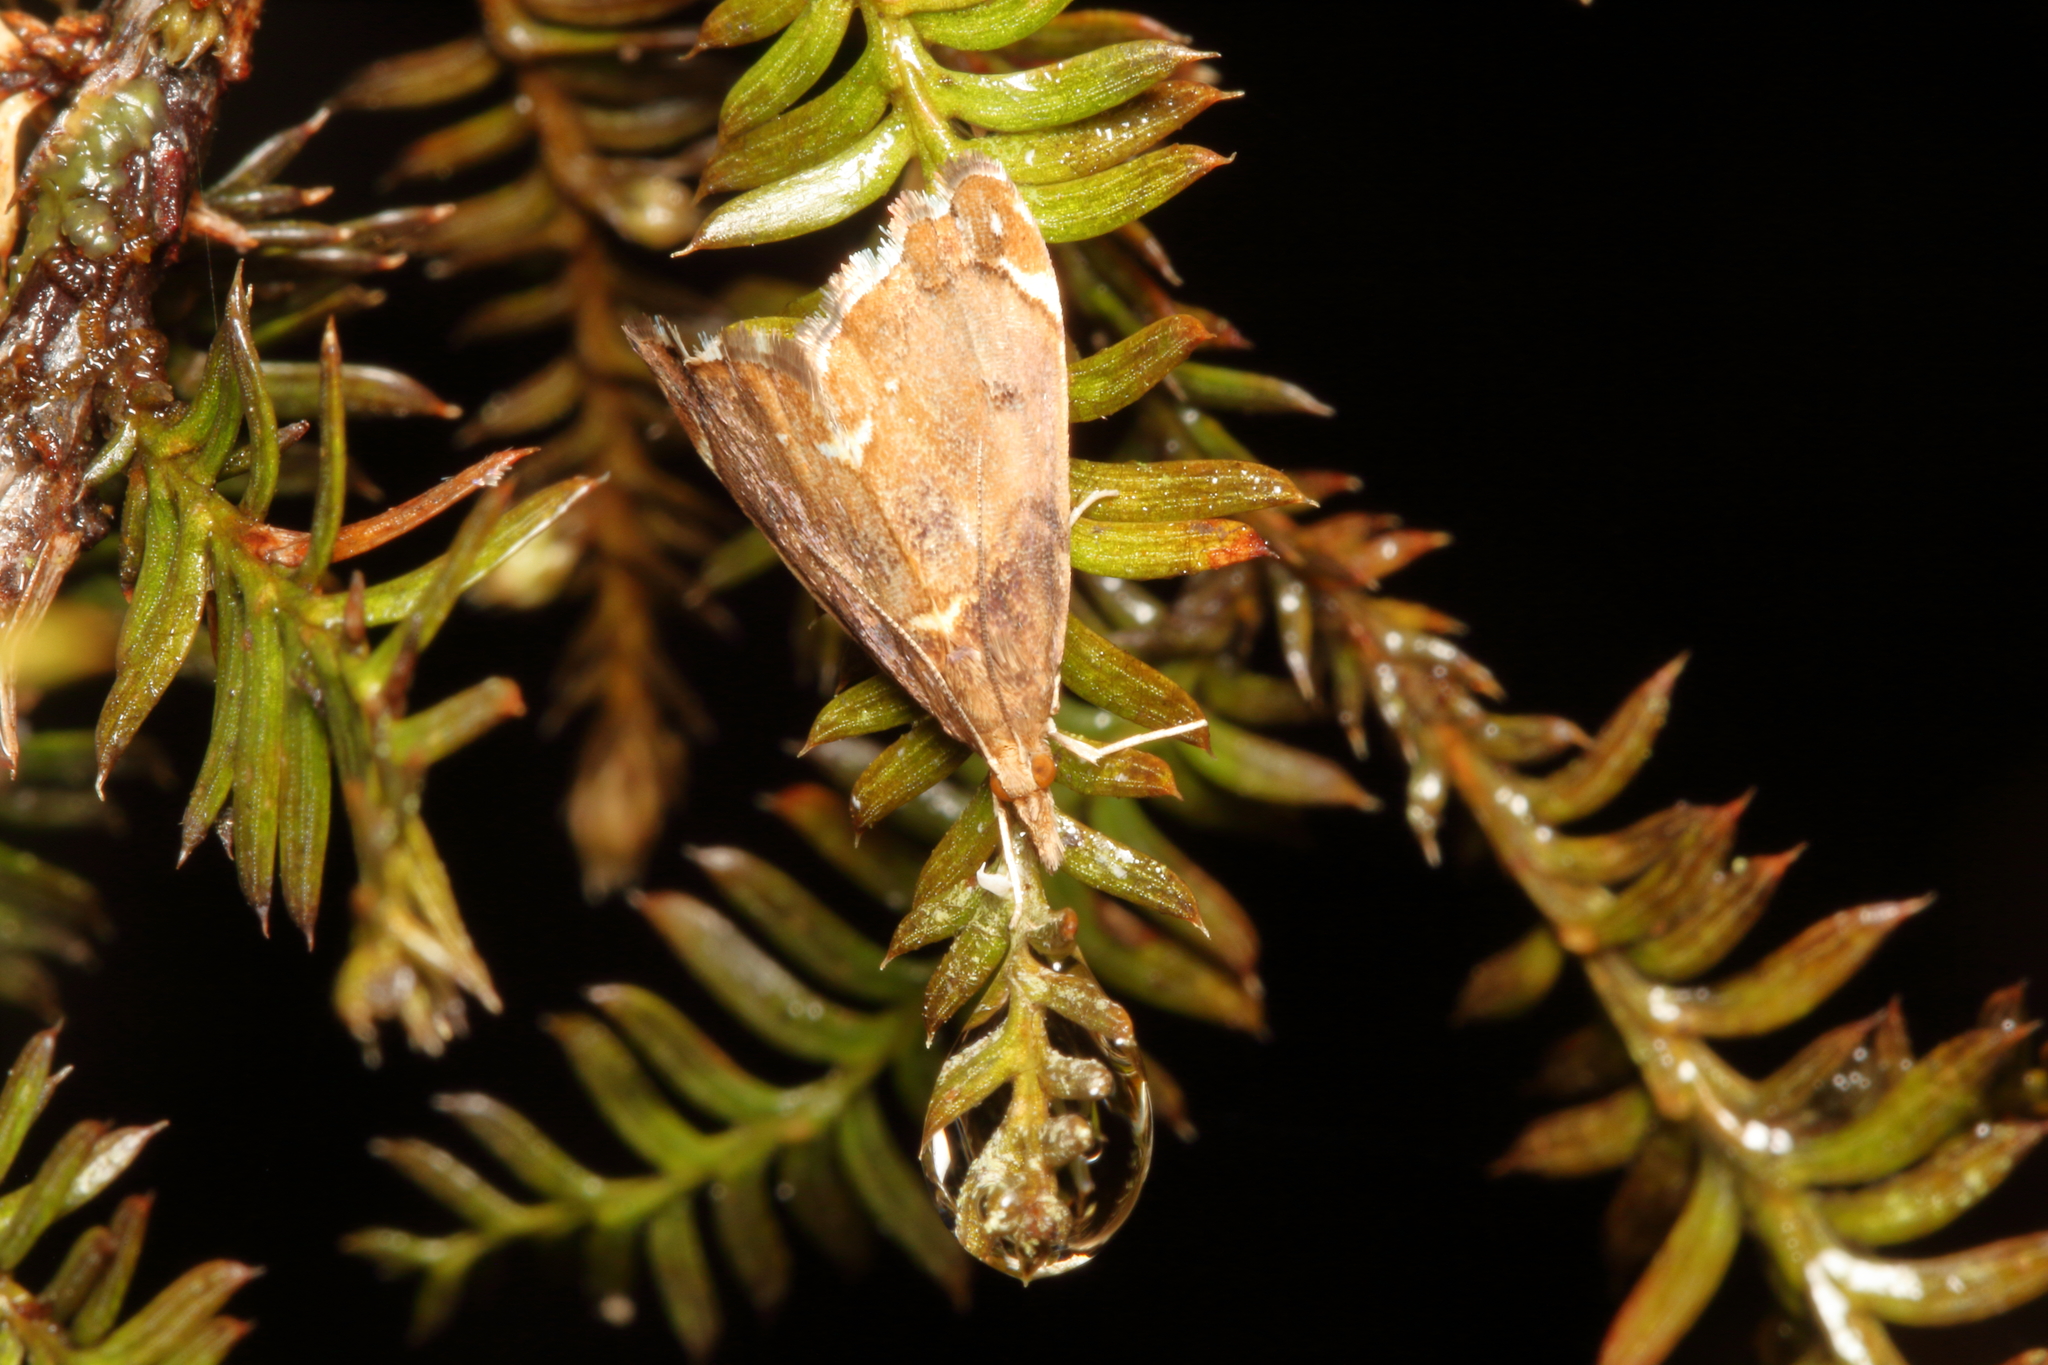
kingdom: Animalia
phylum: Arthropoda
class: Insecta
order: Lepidoptera
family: Crambidae
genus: Glaucocharis
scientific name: Glaucocharis pyrsophanes
